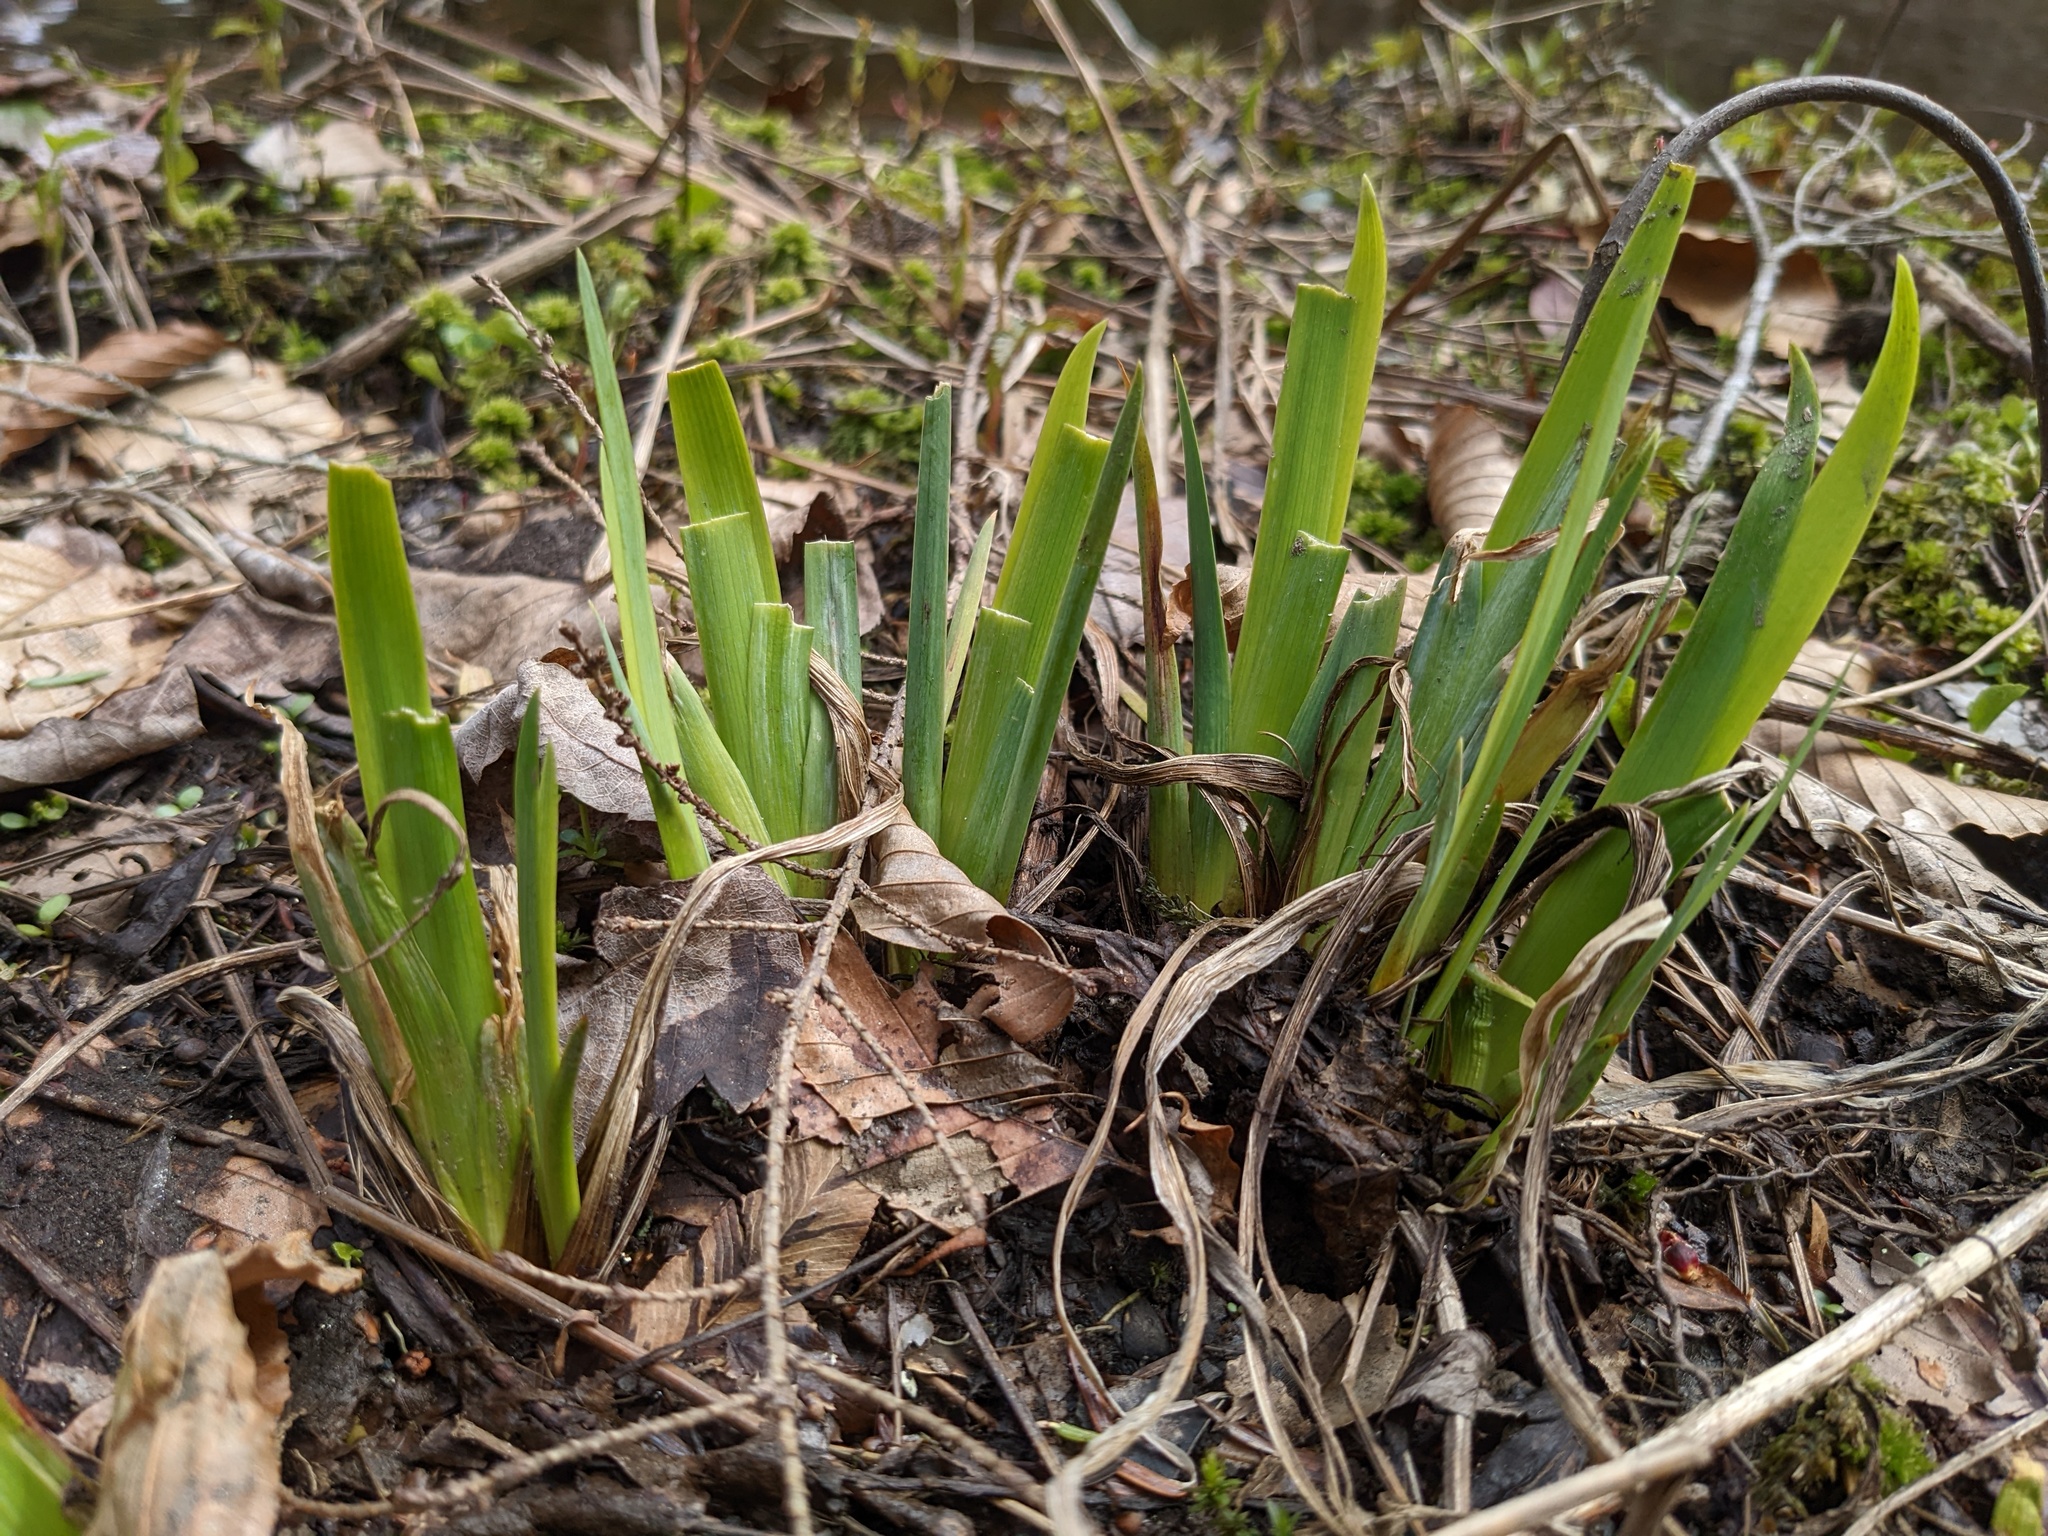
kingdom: Plantae
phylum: Tracheophyta
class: Liliopsida
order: Asparagales
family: Iridaceae
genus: Iris
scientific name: Iris versicolor
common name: Purple iris
